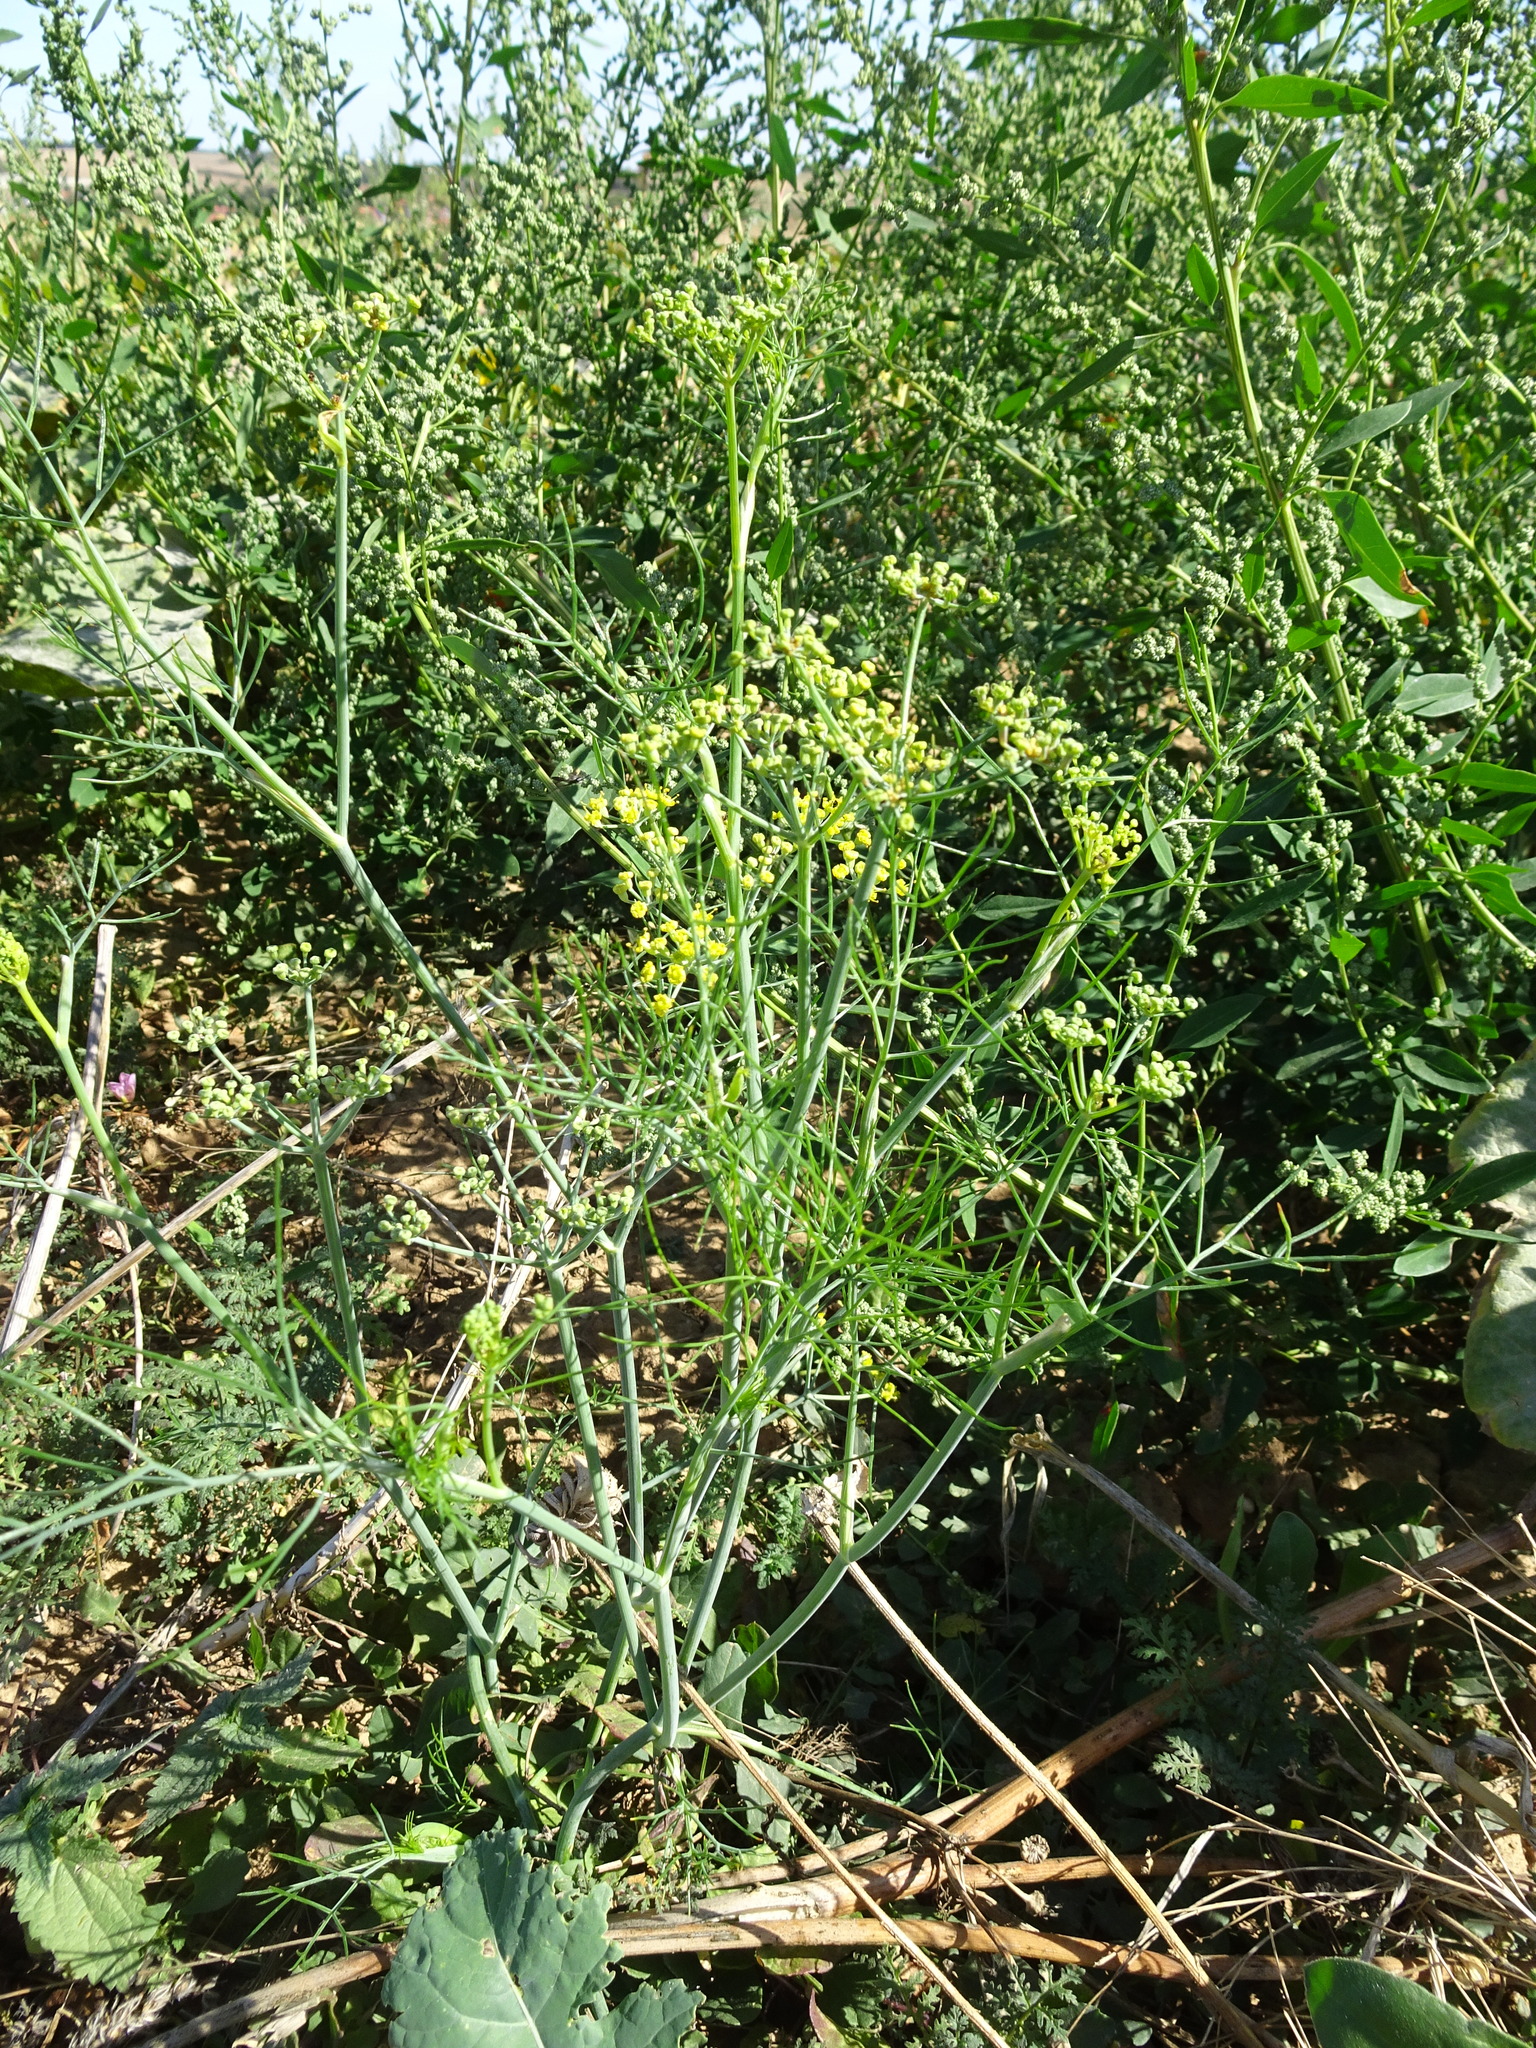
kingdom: Plantae
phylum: Tracheophyta
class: Magnoliopsida
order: Apiales
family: Apiaceae
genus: Foeniculum
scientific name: Foeniculum vulgare
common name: Fennel
